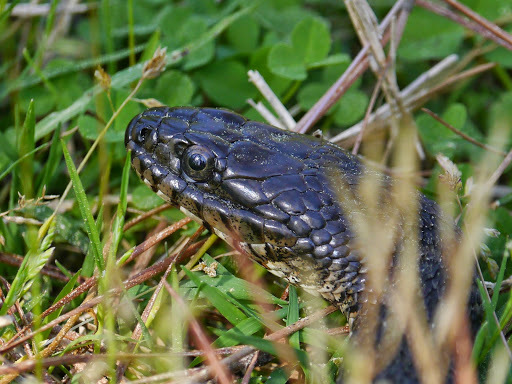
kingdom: Animalia
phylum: Chordata
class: Squamata
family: Colubridae
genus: Nerodia
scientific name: Nerodia sipedon
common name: Northern water snake
